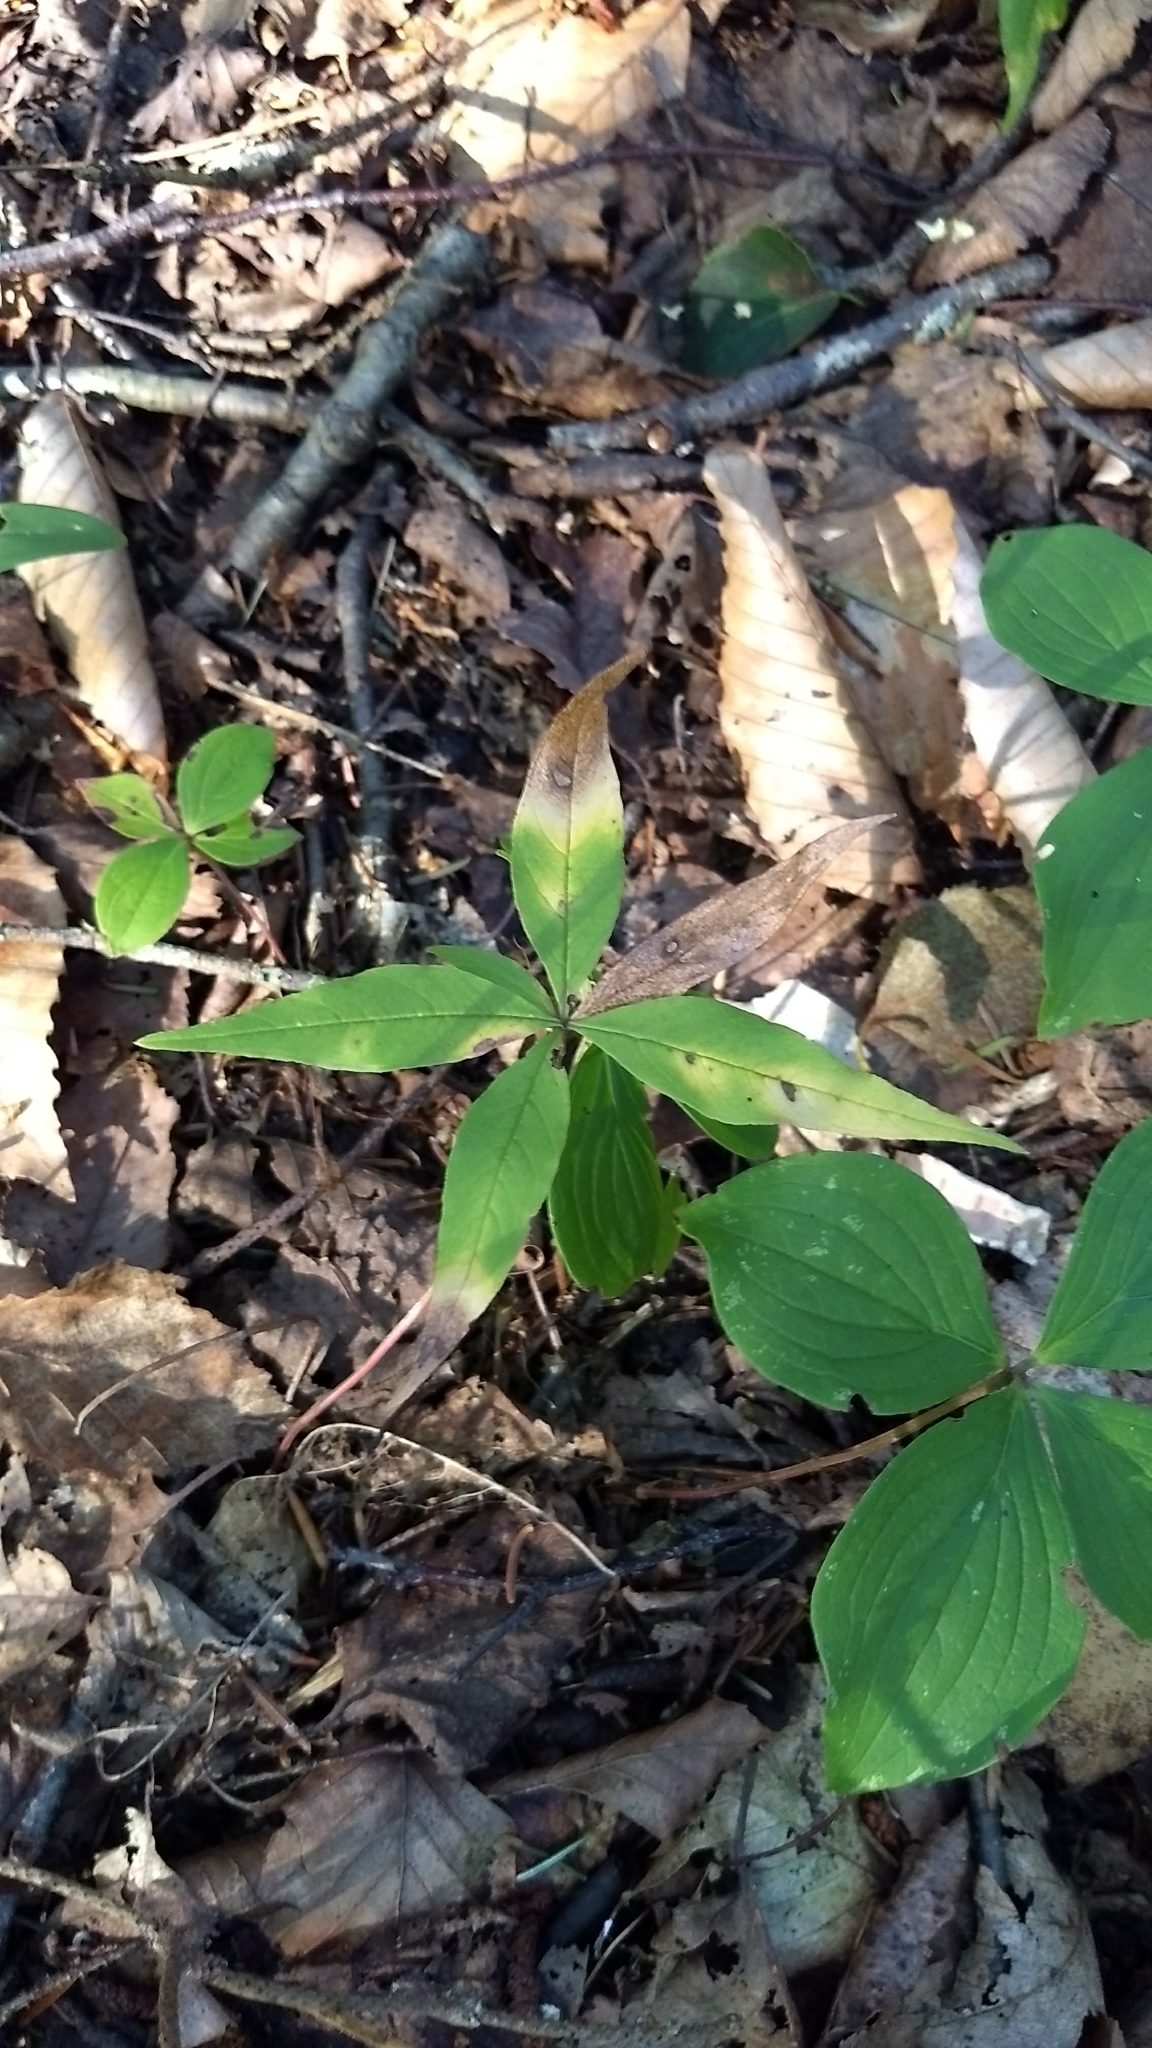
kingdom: Plantae
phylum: Tracheophyta
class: Magnoliopsida
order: Ericales
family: Primulaceae
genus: Lysimachia
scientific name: Lysimachia borealis
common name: American starflower
